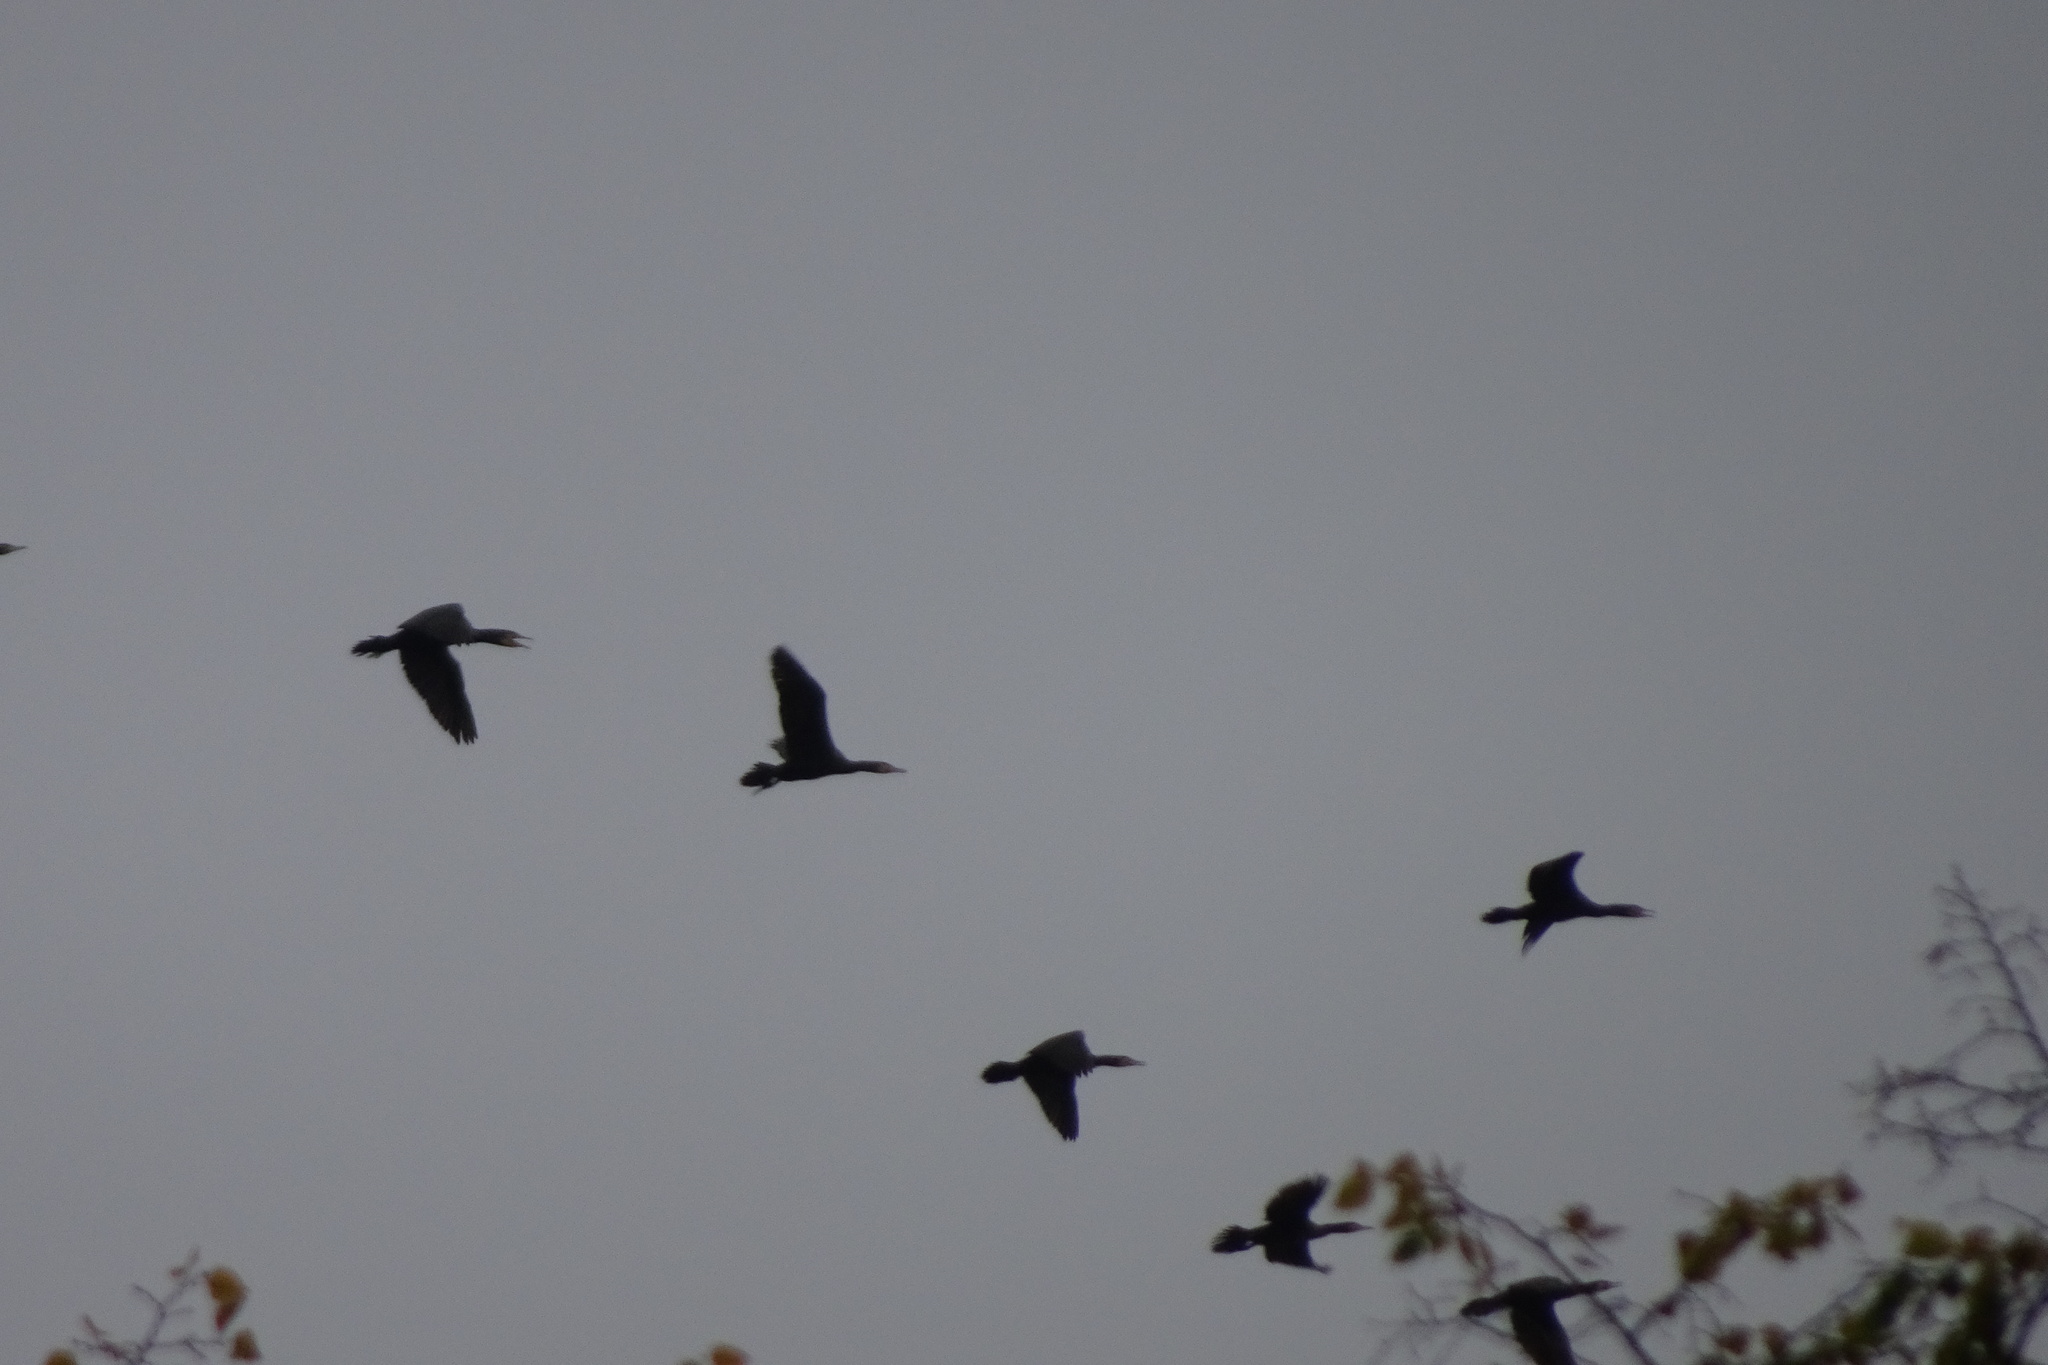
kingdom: Animalia
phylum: Chordata
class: Aves
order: Suliformes
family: Phalacrocoracidae
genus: Phalacrocorax
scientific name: Phalacrocorax carbo
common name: Great cormorant
